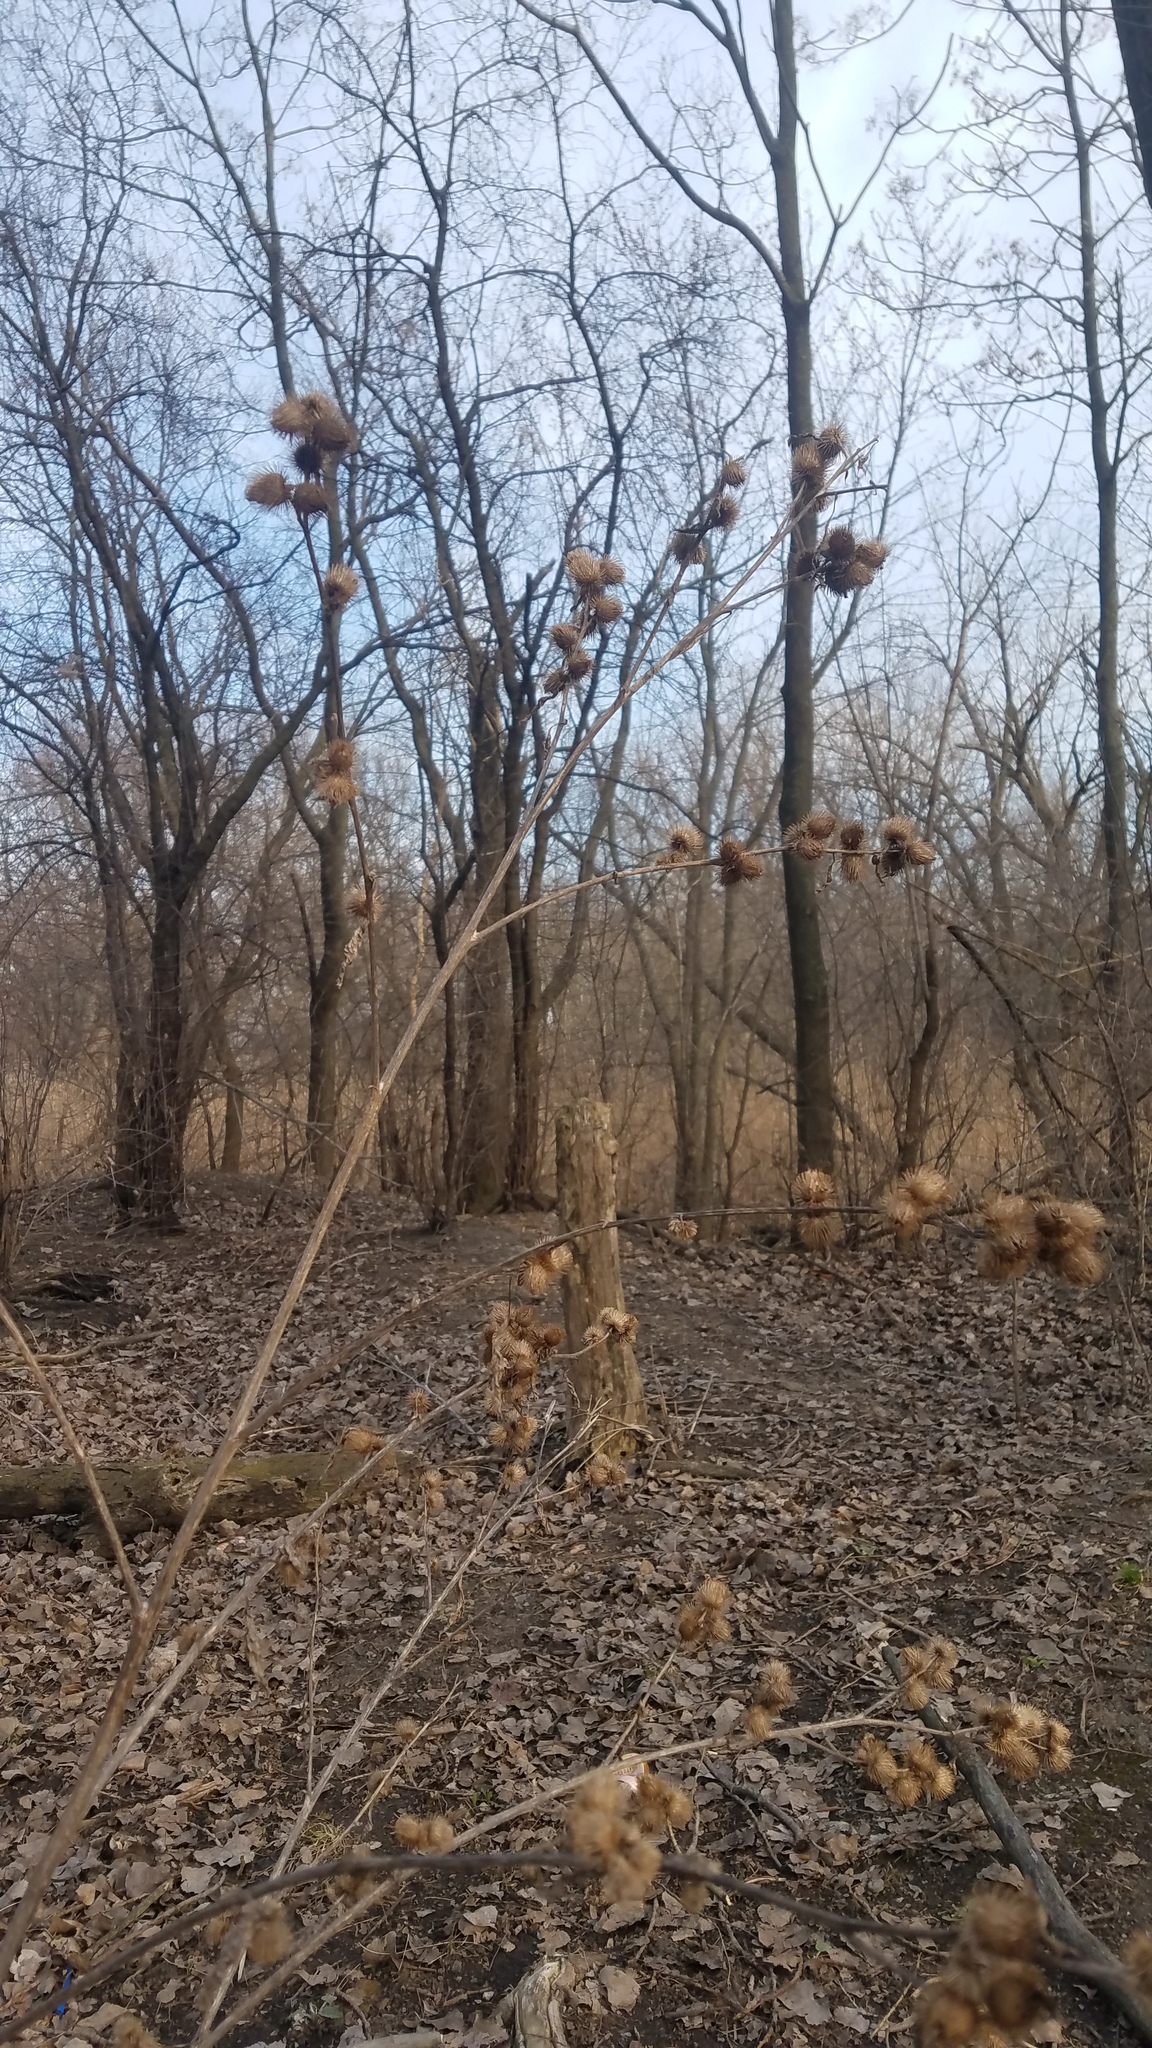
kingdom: Plantae
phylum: Tracheophyta
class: Magnoliopsida
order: Asterales
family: Asteraceae
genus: Arctium
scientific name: Arctium minus
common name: Lesser burdock
